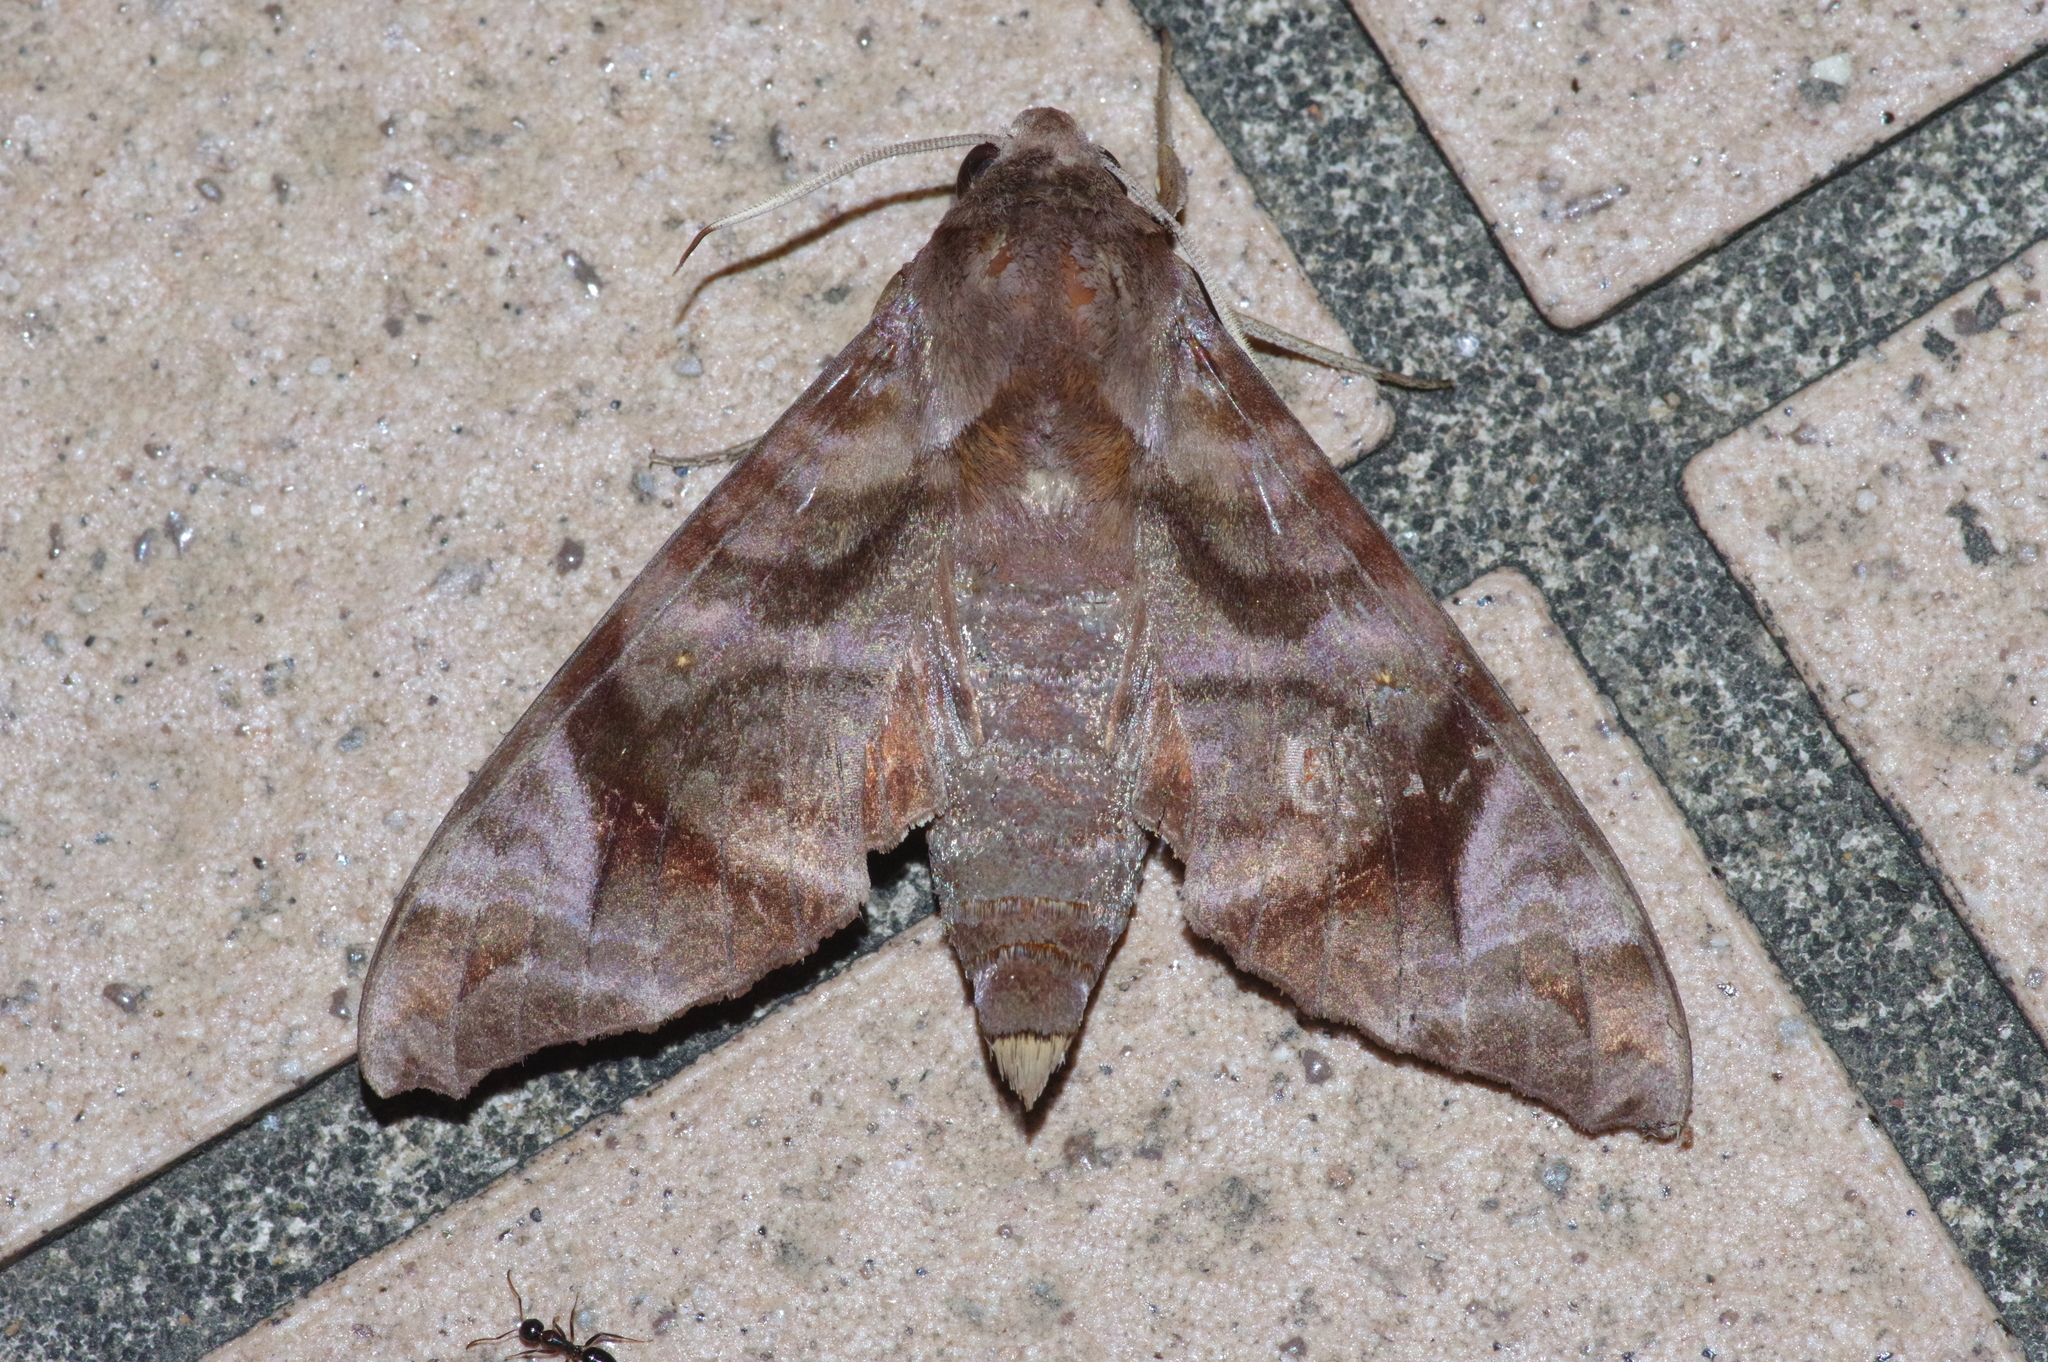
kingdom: Animalia
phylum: Arthropoda
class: Insecta
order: Lepidoptera
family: Sphingidae
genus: Acosmeryx
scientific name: Acosmeryx castanea
